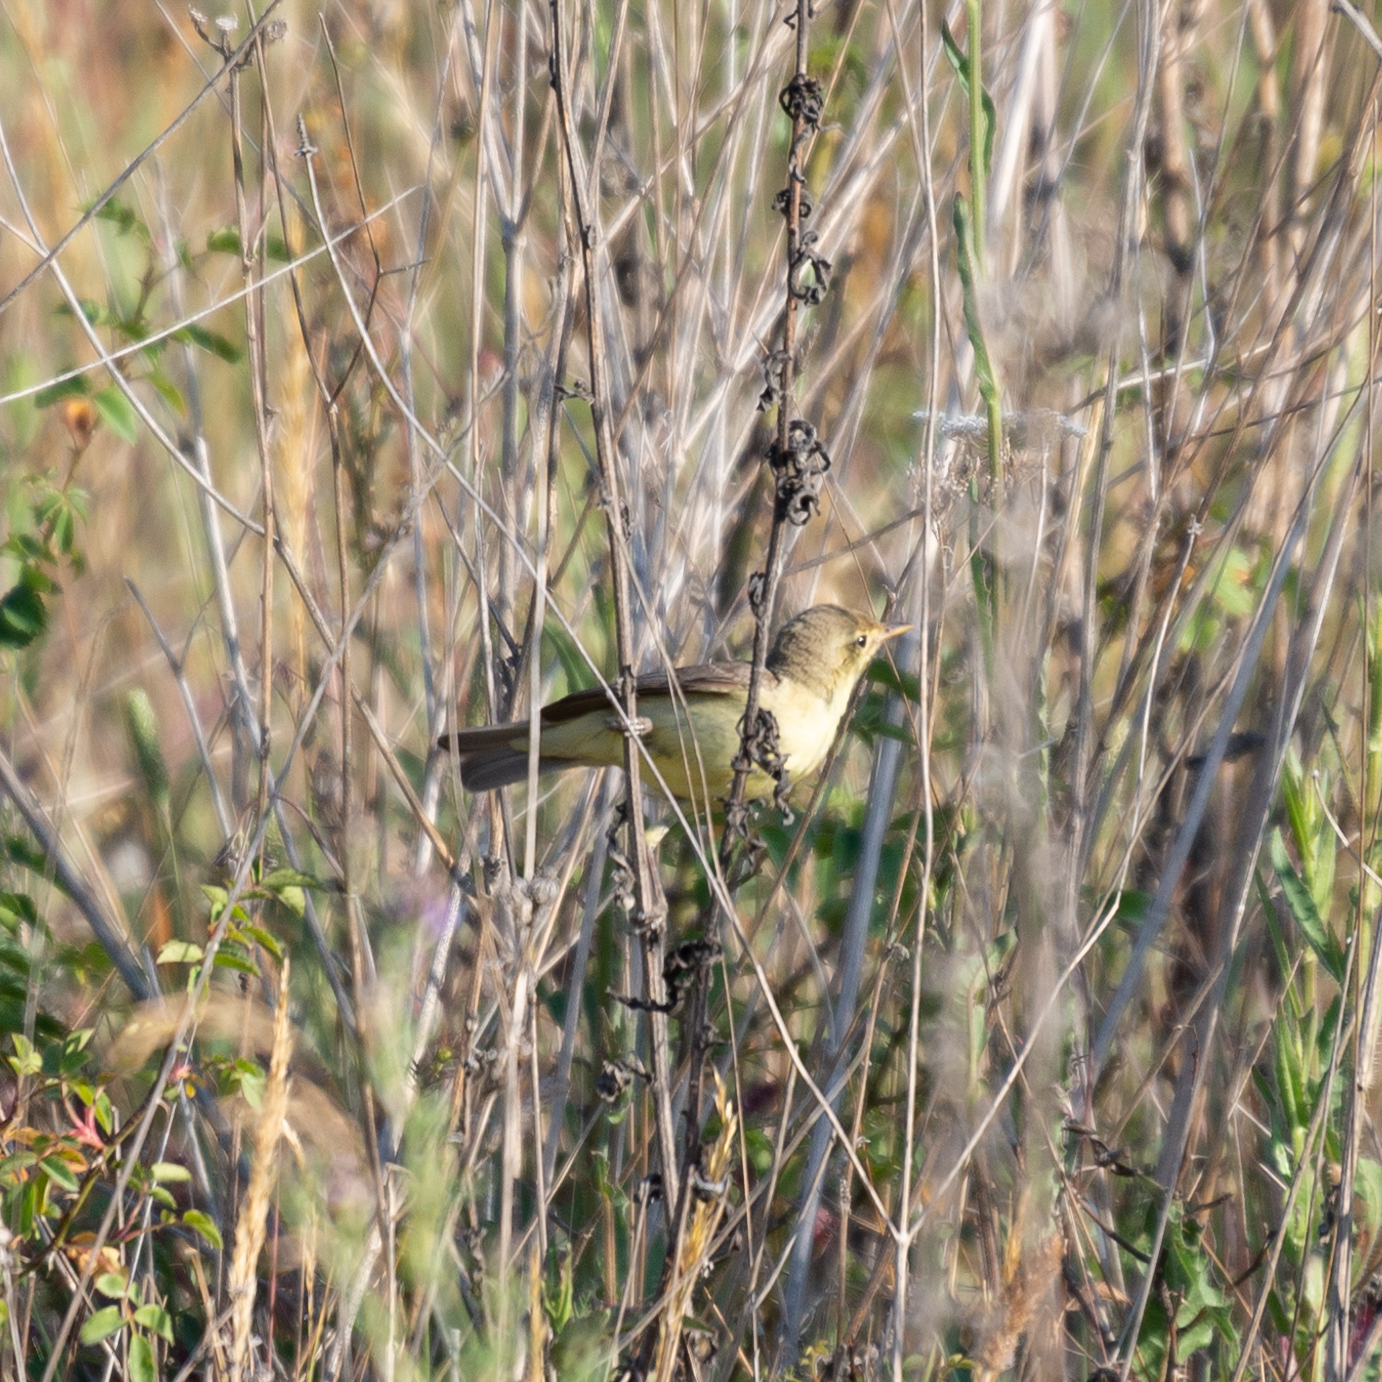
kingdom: Animalia
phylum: Chordata
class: Aves
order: Passeriformes
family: Acrocephalidae
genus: Hippolais
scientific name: Hippolais polyglotta
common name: Melodious warbler
